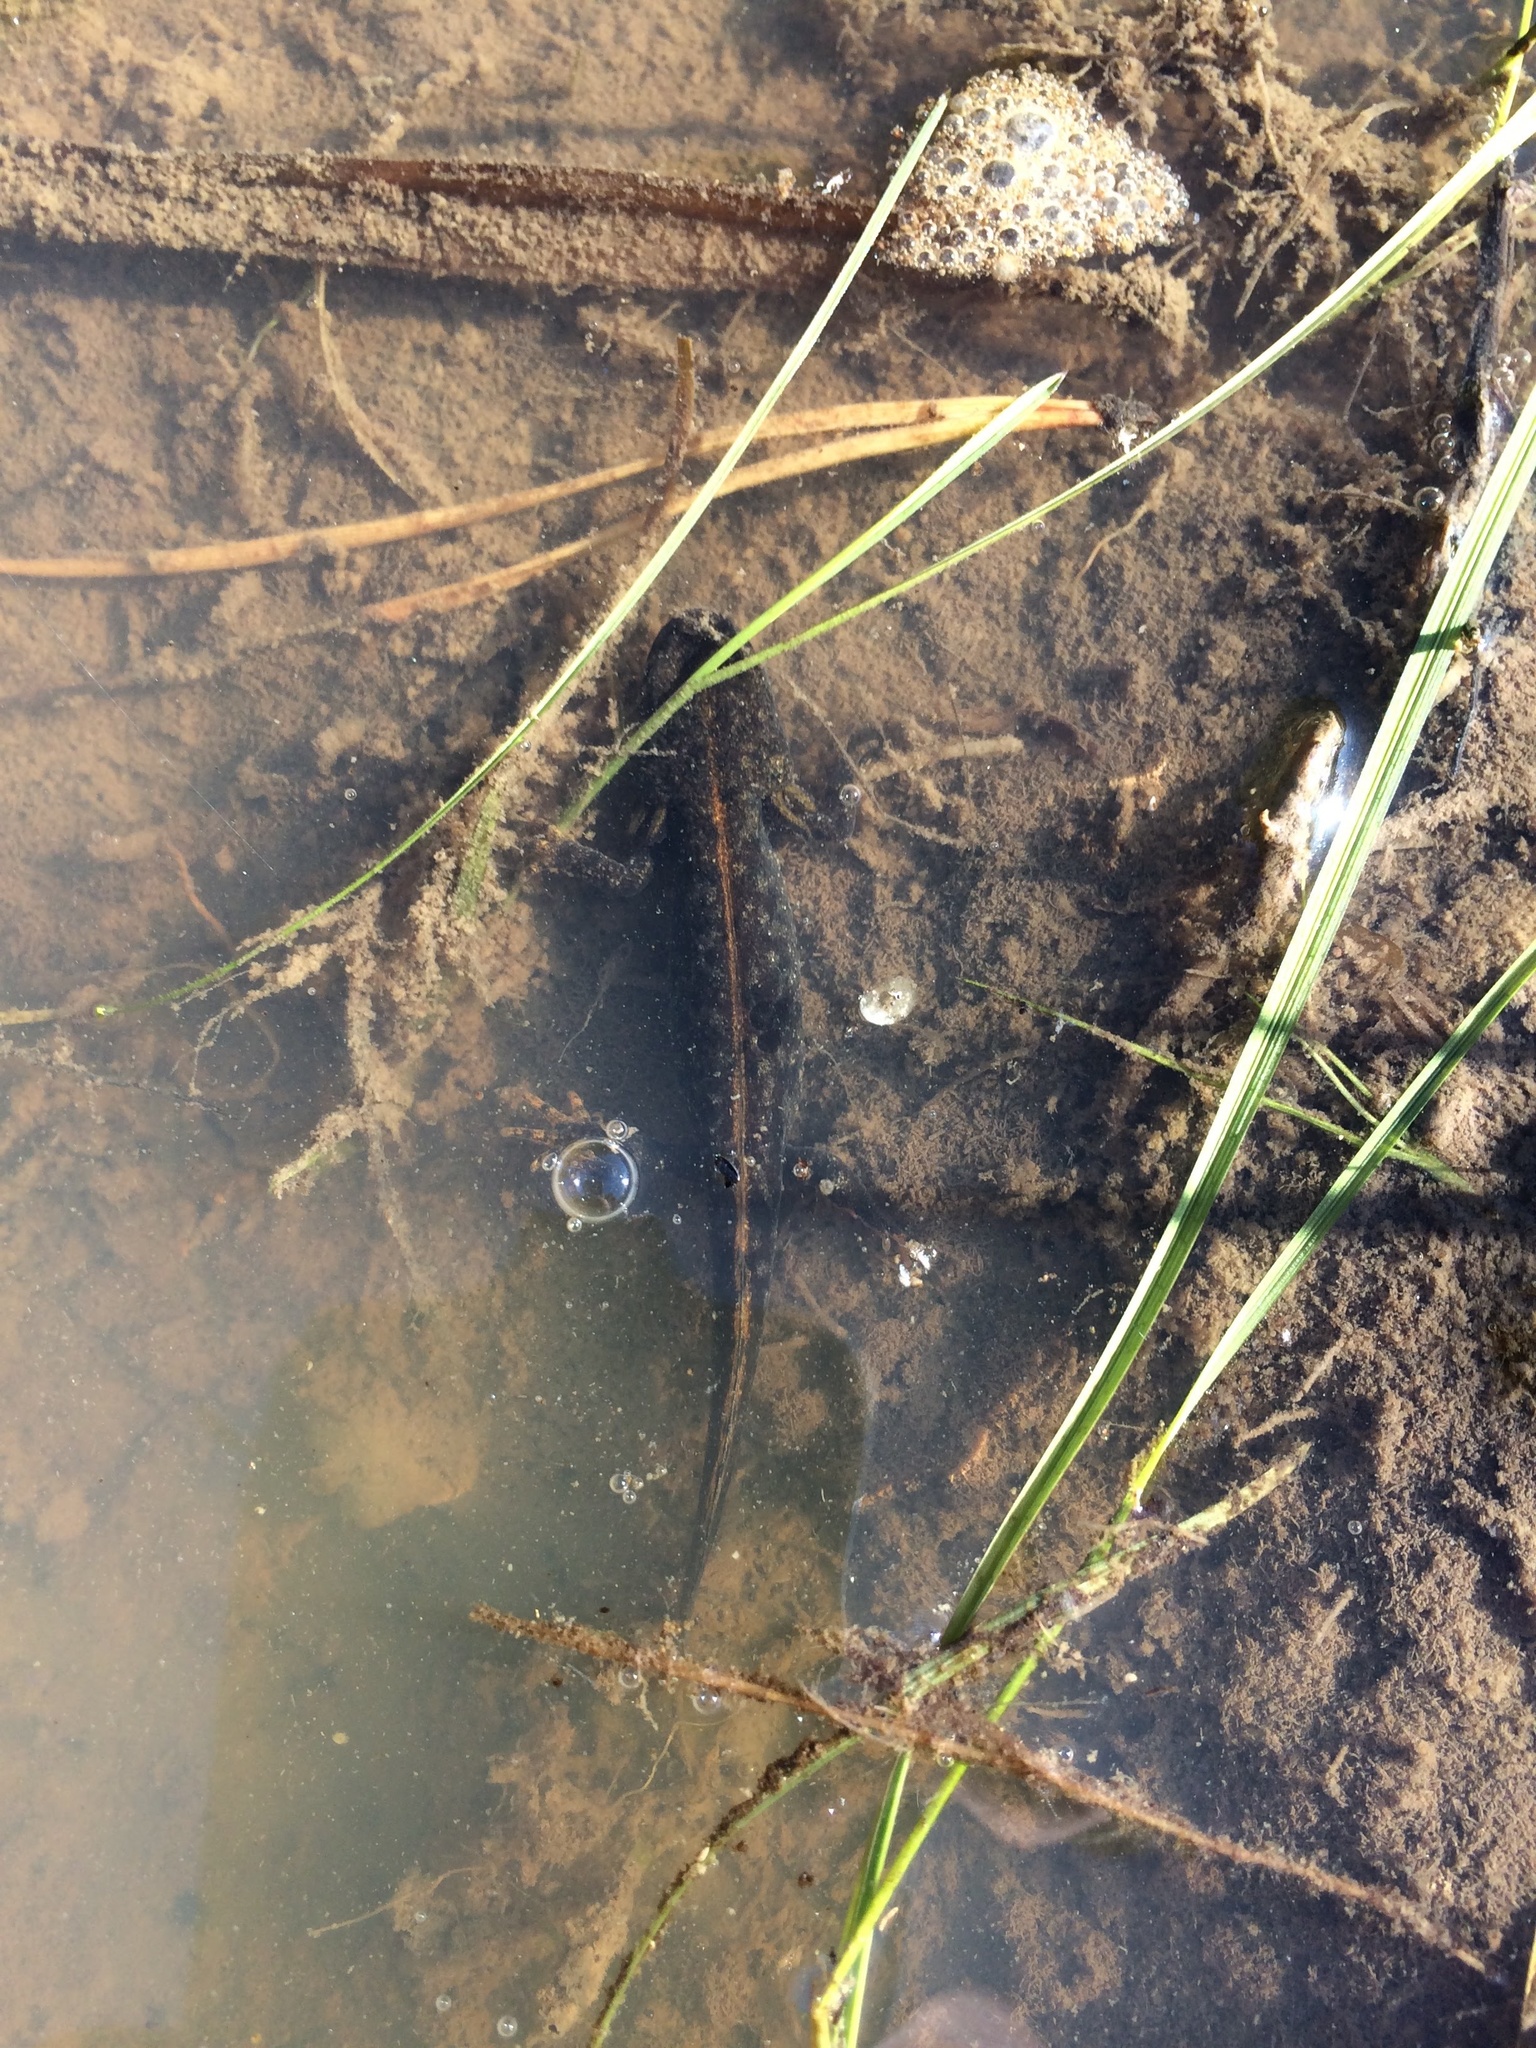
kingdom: Animalia
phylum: Chordata
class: Amphibia
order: Caudata
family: Salamandridae
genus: Triturus
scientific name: Triturus cristatus
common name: Crested newt
